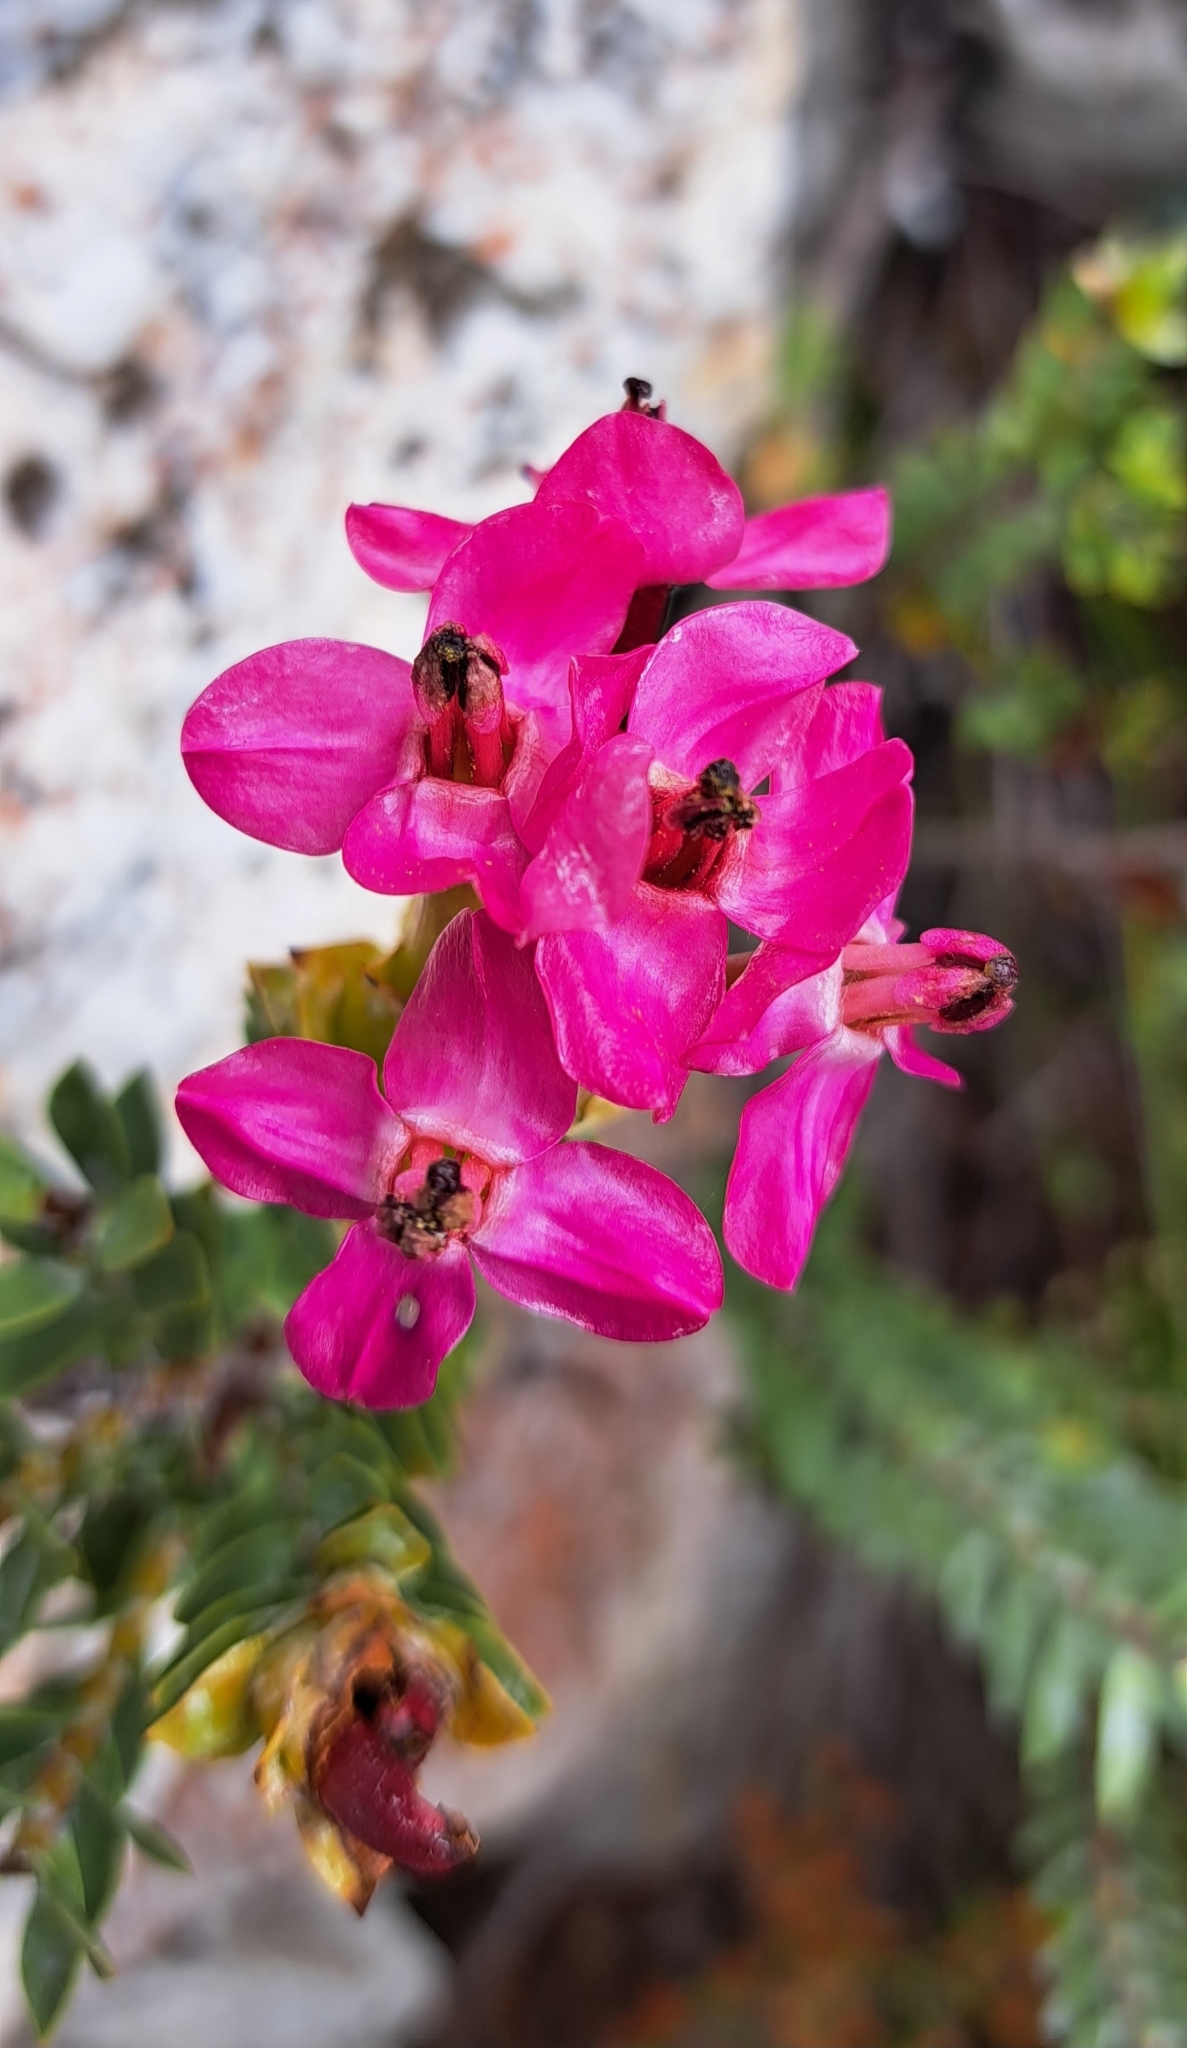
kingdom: Plantae
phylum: Tracheophyta
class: Magnoliopsida
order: Myrtales
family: Penaeaceae
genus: Saltera
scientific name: Saltera sarcocolla
